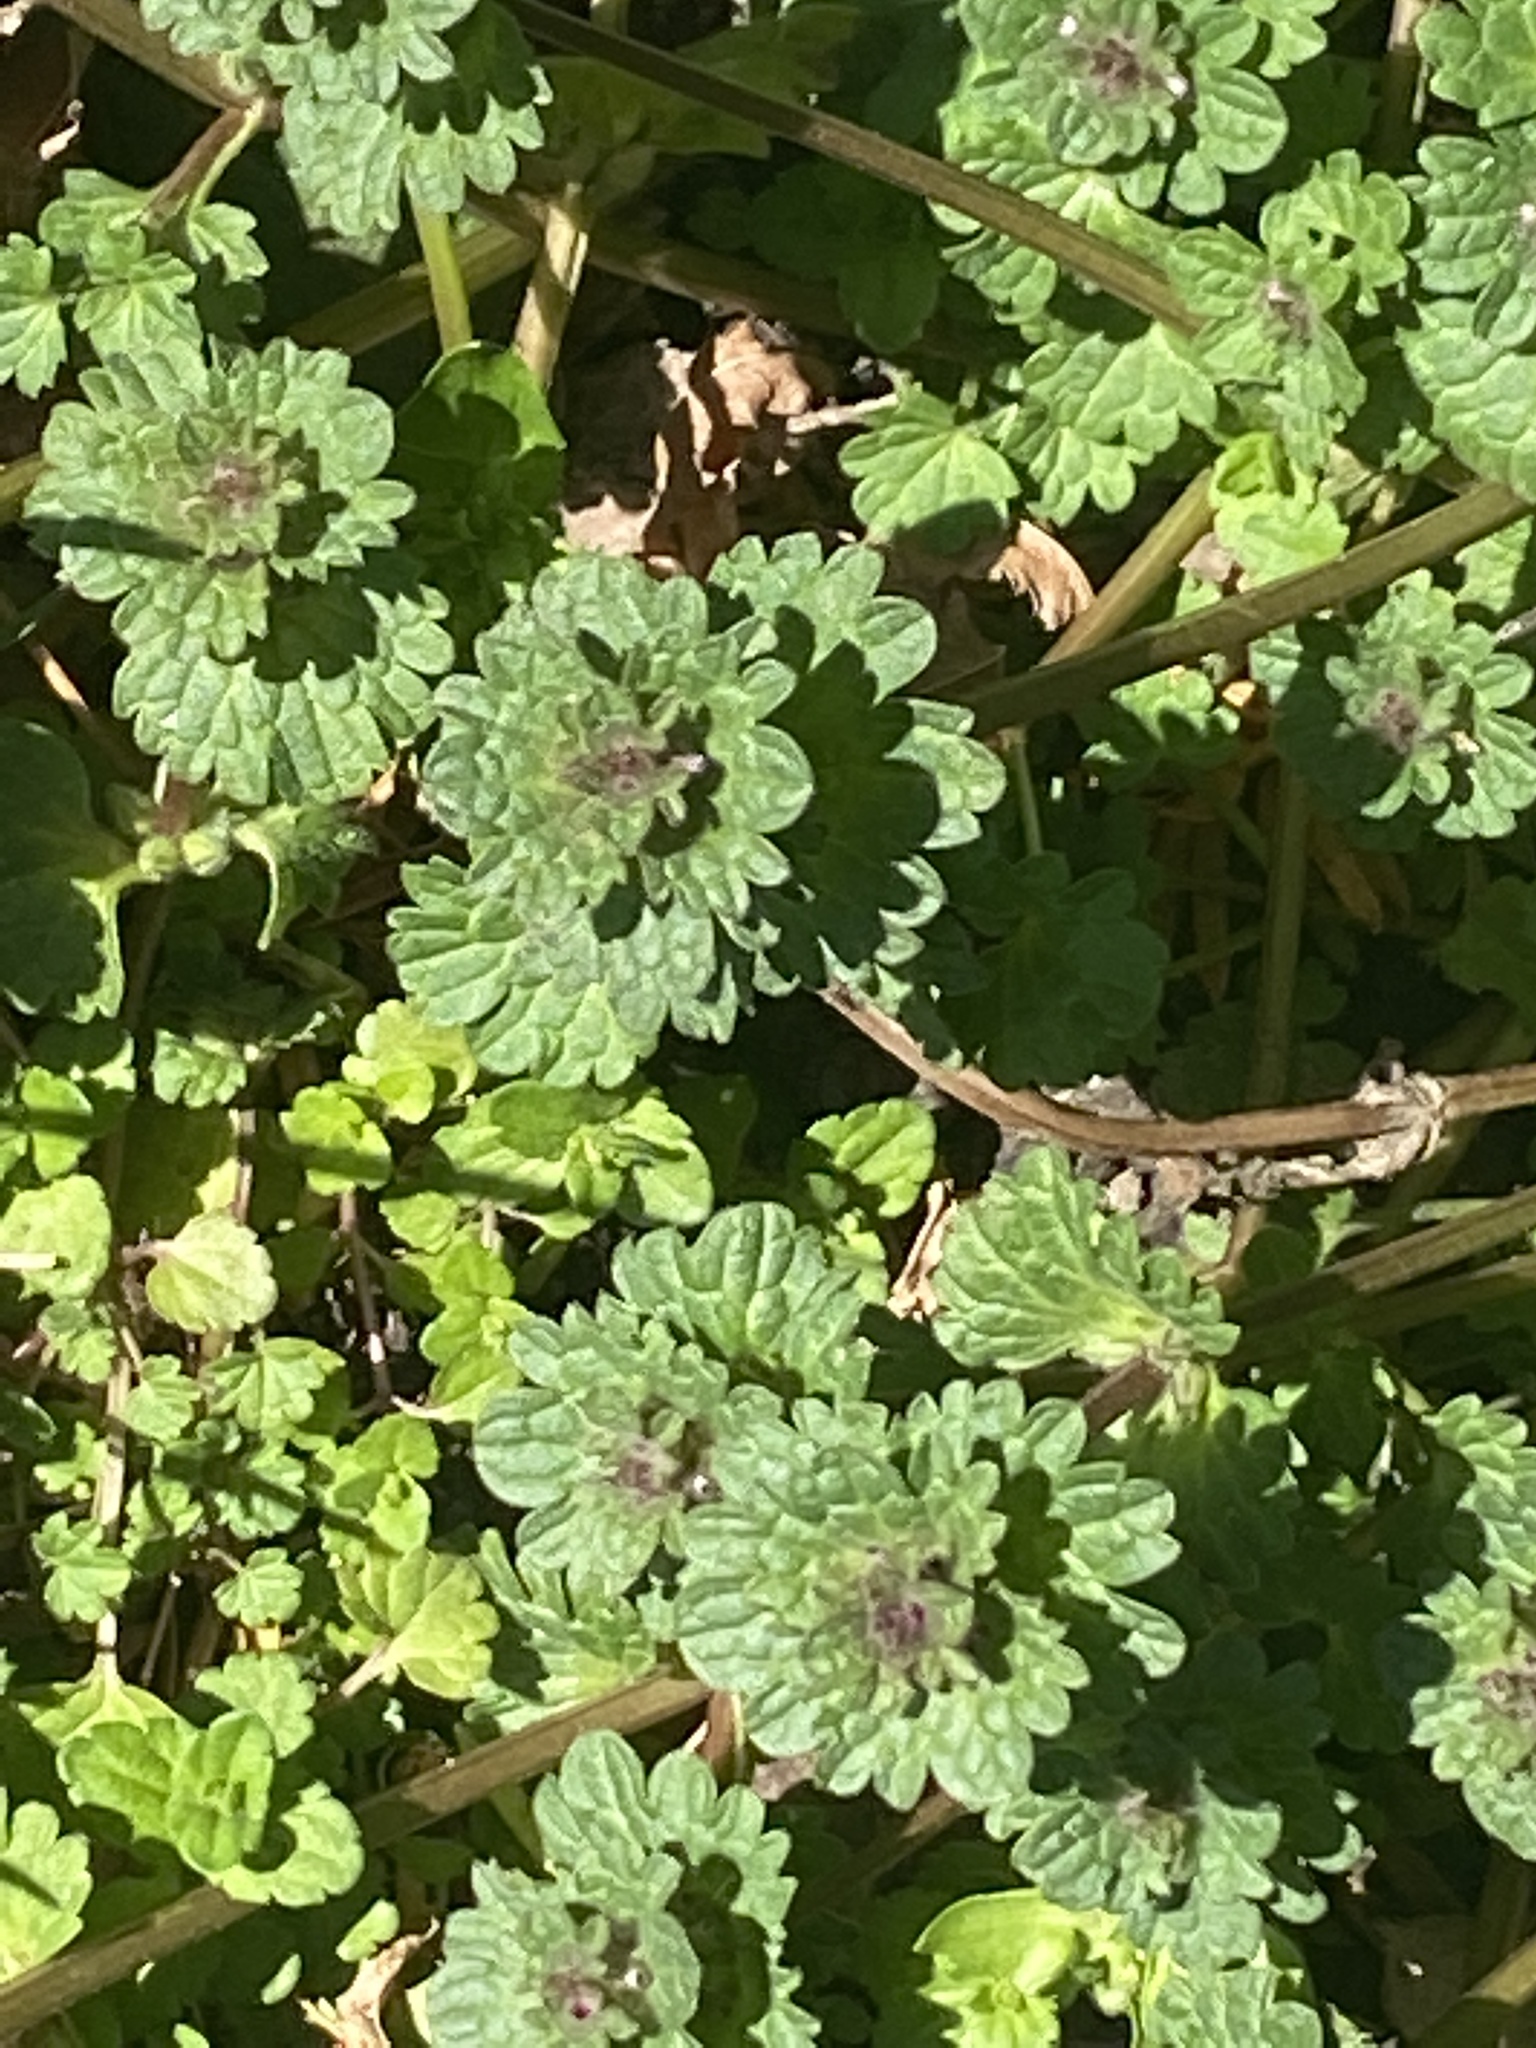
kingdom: Plantae
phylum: Tracheophyta
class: Magnoliopsida
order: Lamiales
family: Lamiaceae
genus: Lamium
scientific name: Lamium amplexicaule
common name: Henbit dead-nettle
